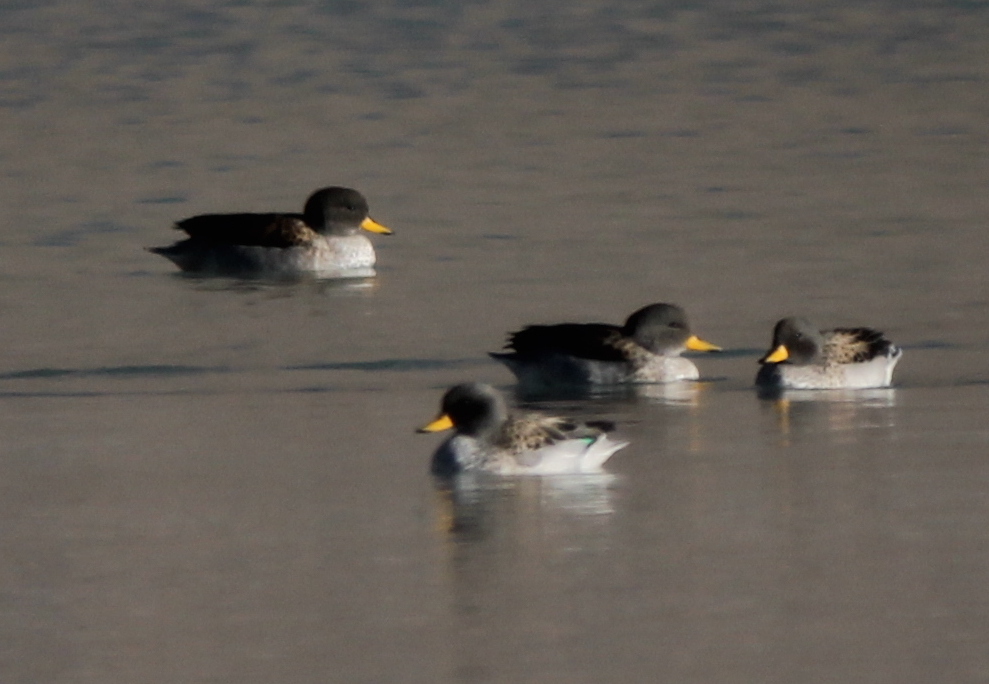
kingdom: Animalia
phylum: Chordata
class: Aves
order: Anseriformes
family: Anatidae
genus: Anas
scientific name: Anas flavirostris
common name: Yellow-billed teal
